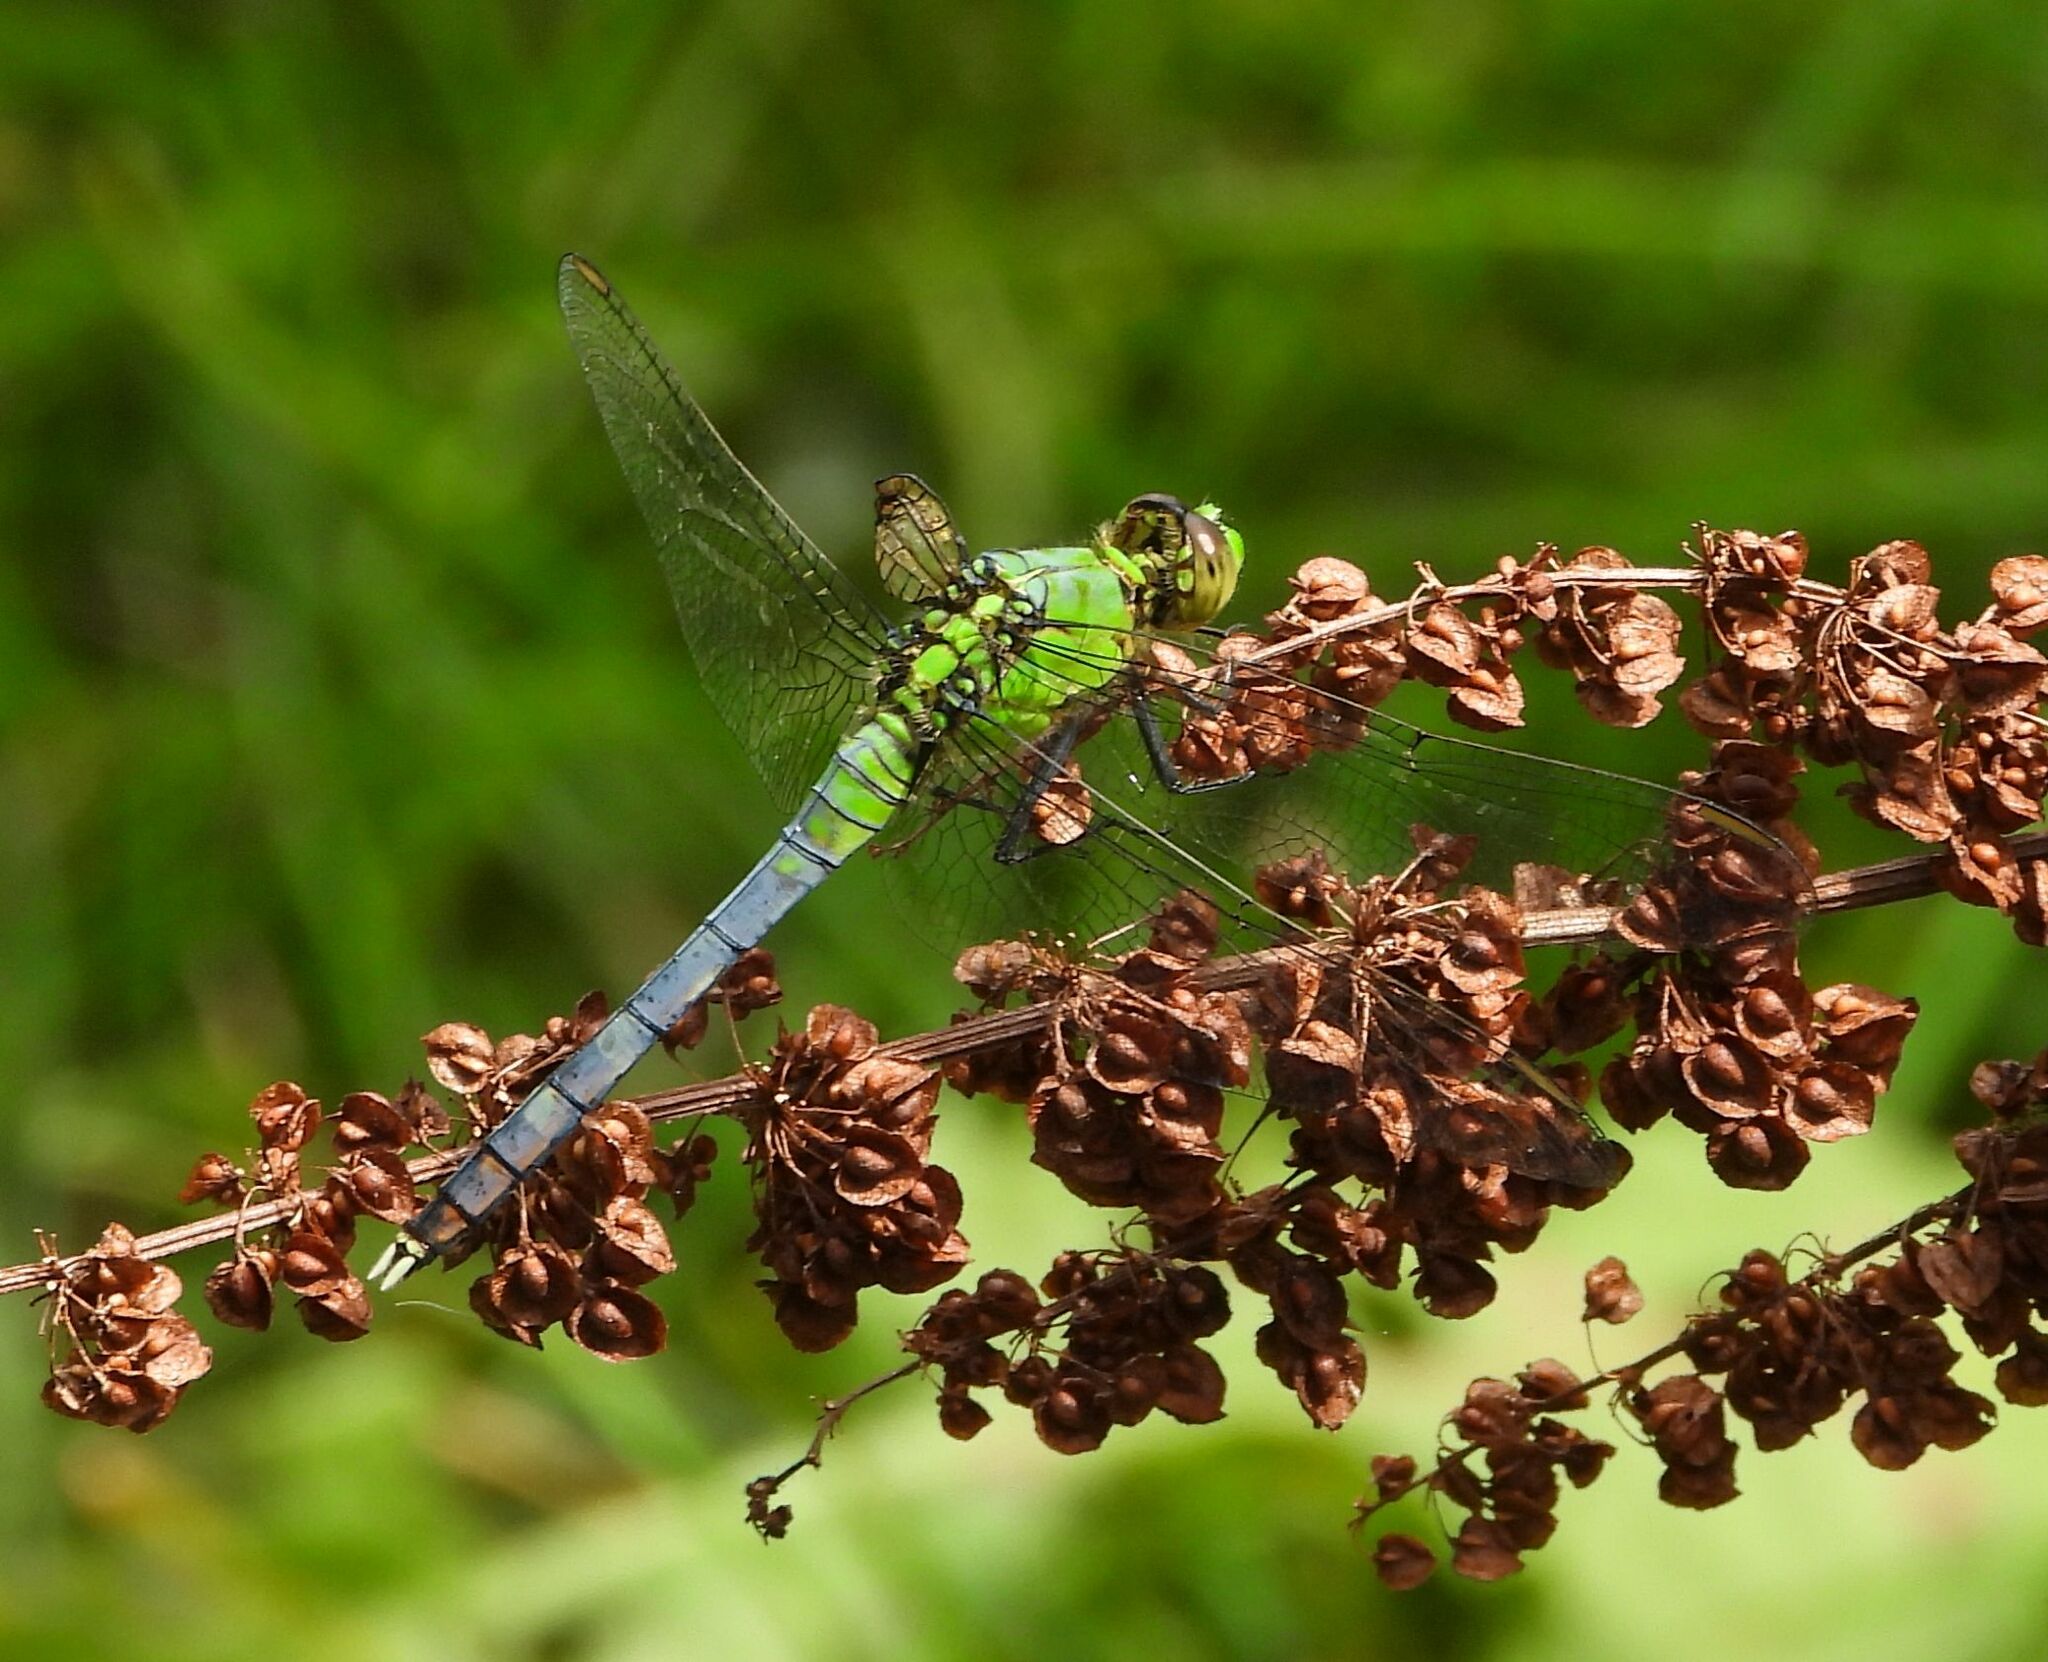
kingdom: Animalia
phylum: Arthropoda
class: Insecta
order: Odonata
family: Libellulidae
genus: Erythemis
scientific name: Erythemis simplicicollis
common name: Eastern pondhawk
